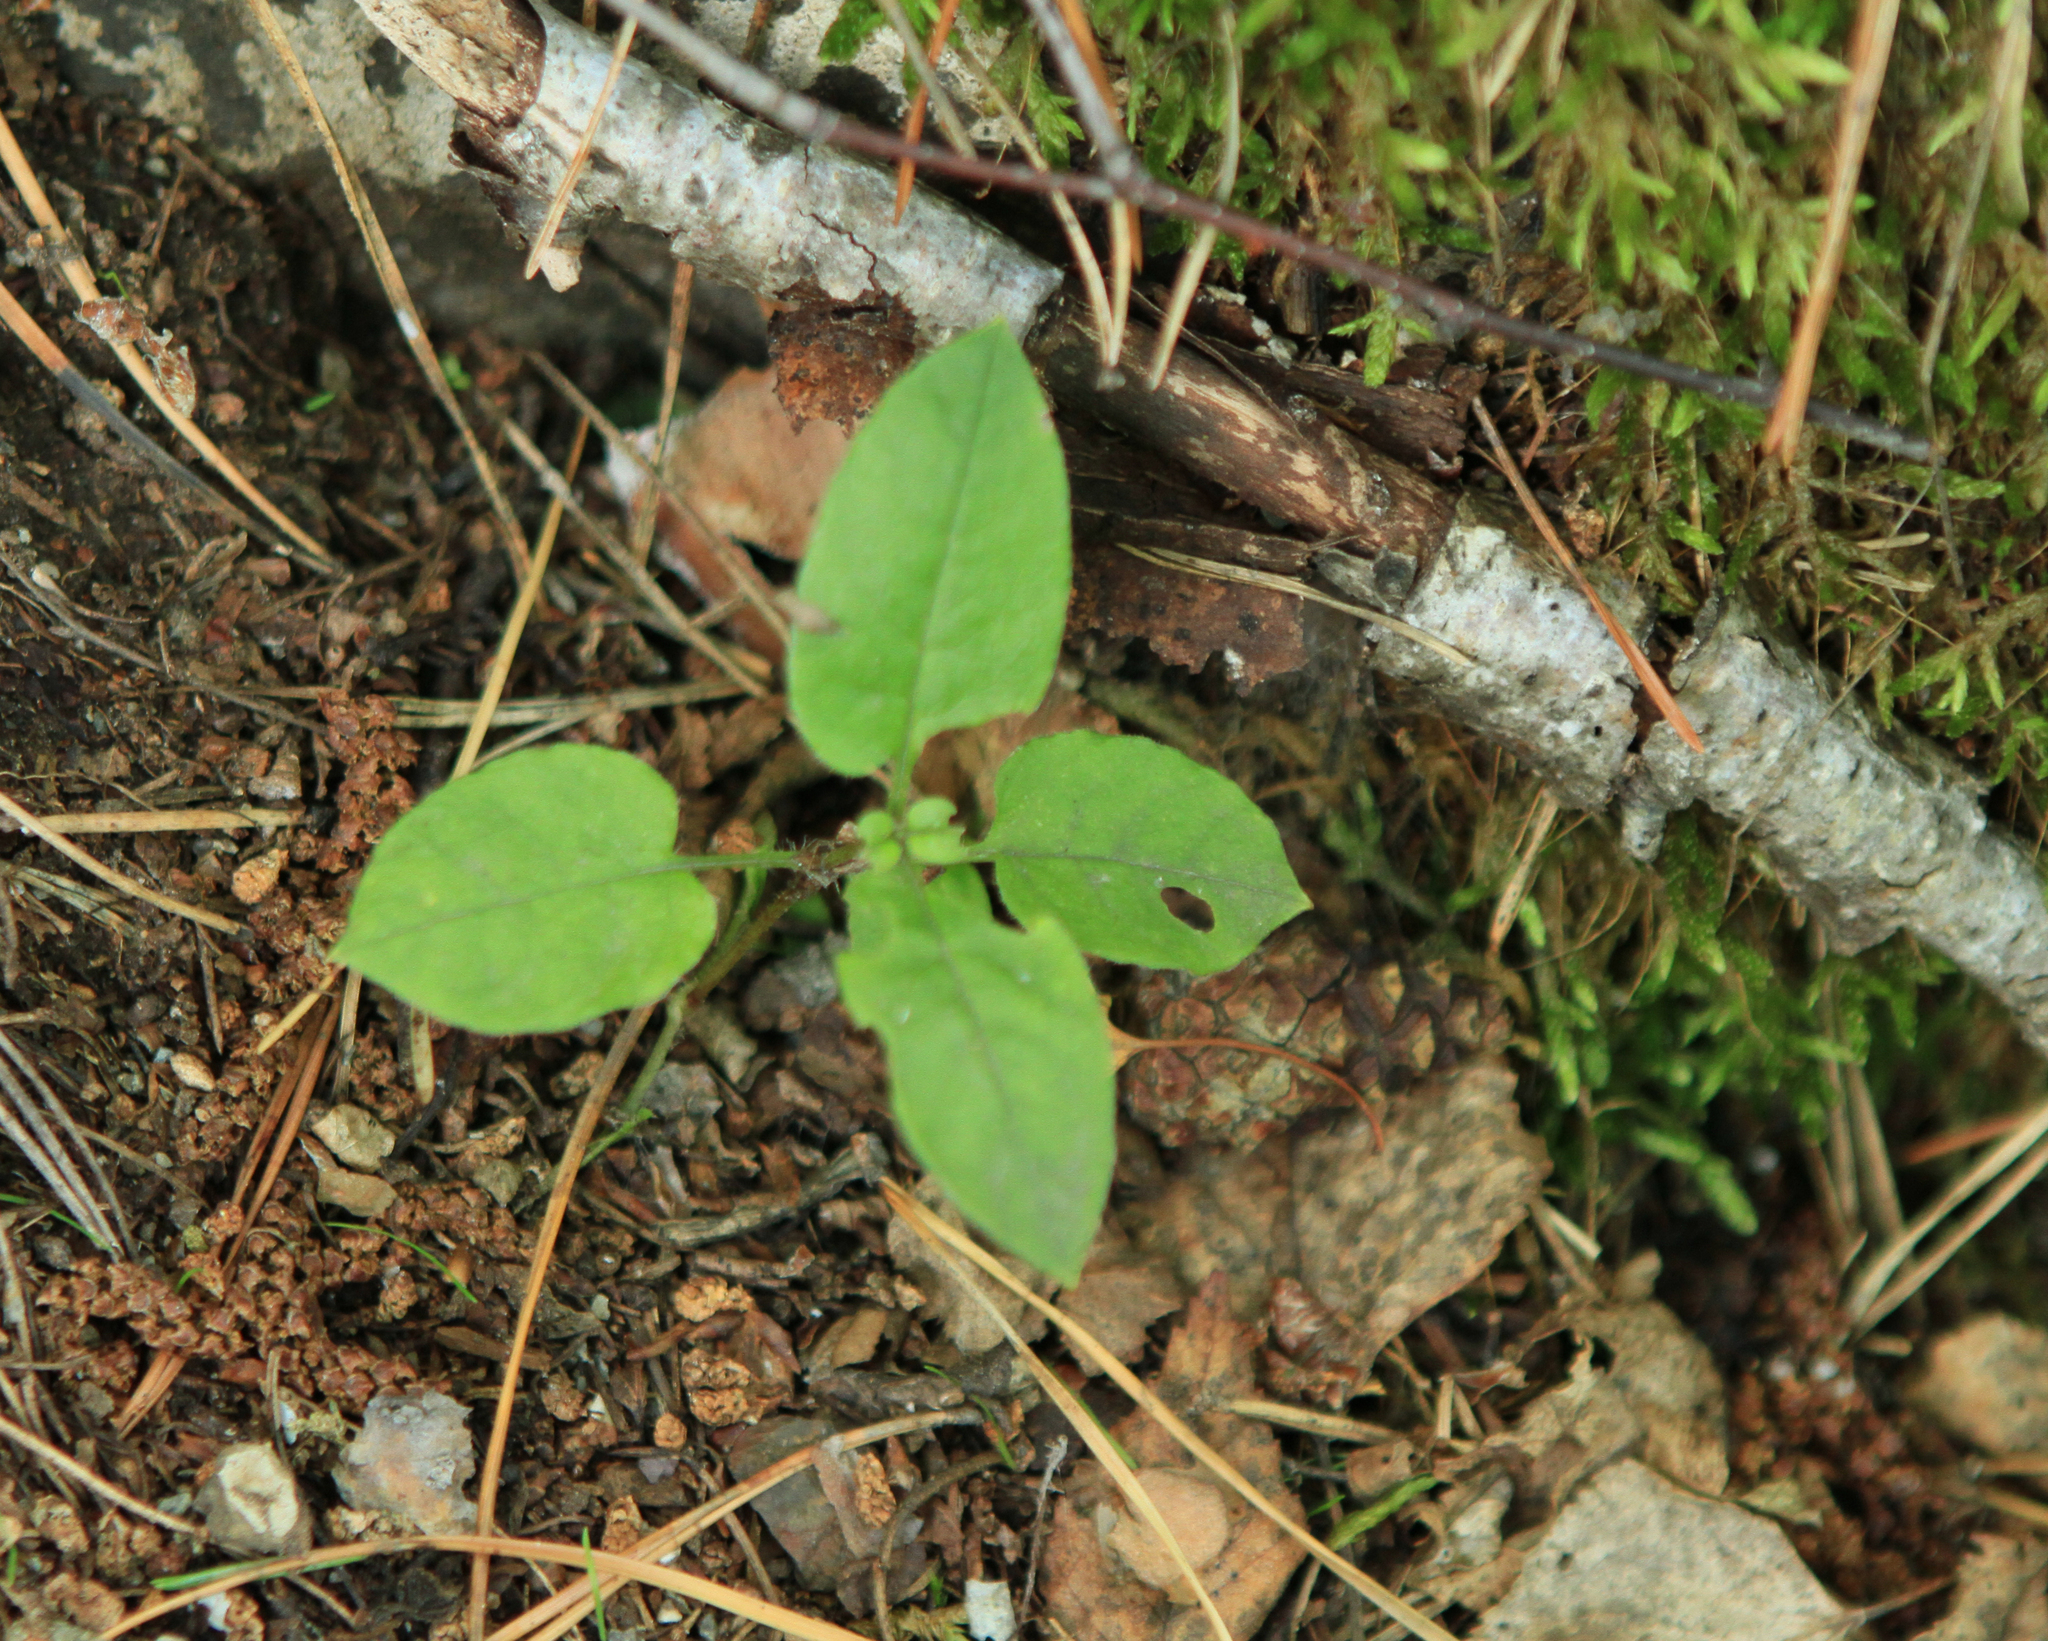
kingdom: Plantae
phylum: Tracheophyta
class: Magnoliopsida
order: Caryophyllales
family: Caryophyllaceae
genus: Stellaria
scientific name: Stellaria bungeana
